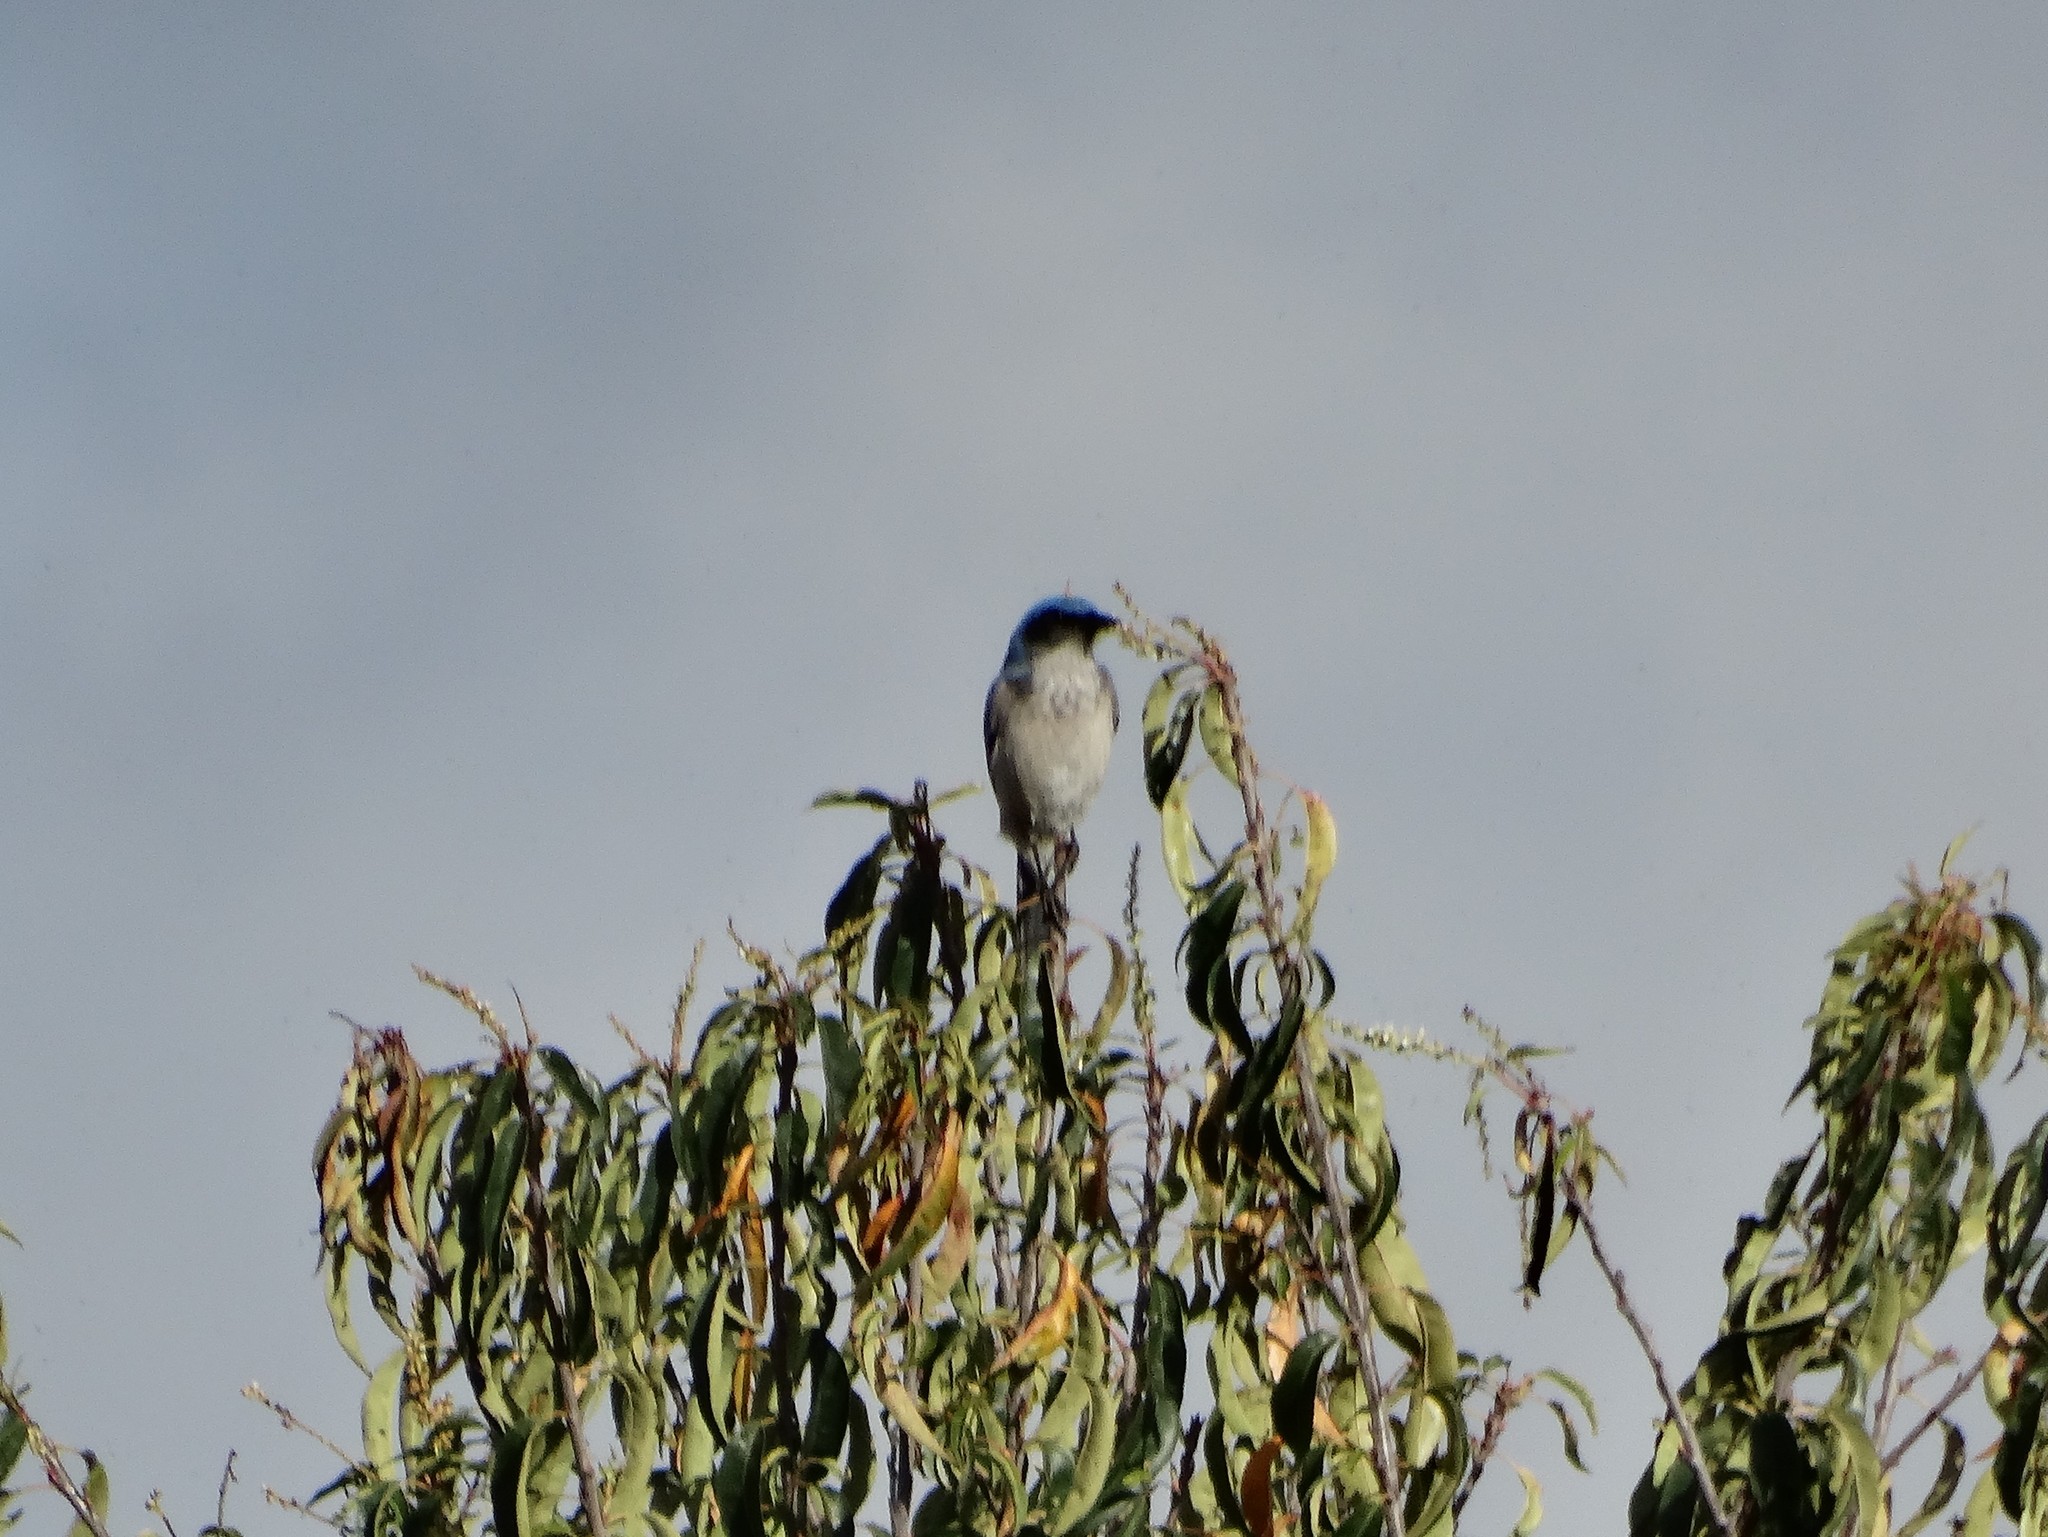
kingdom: Animalia
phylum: Chordata
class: Aves
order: Passeriformes
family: Corvidae
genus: Aphelocoma
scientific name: Aphelocoma woodhouseii
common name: Woodhouse's scrub-jay
